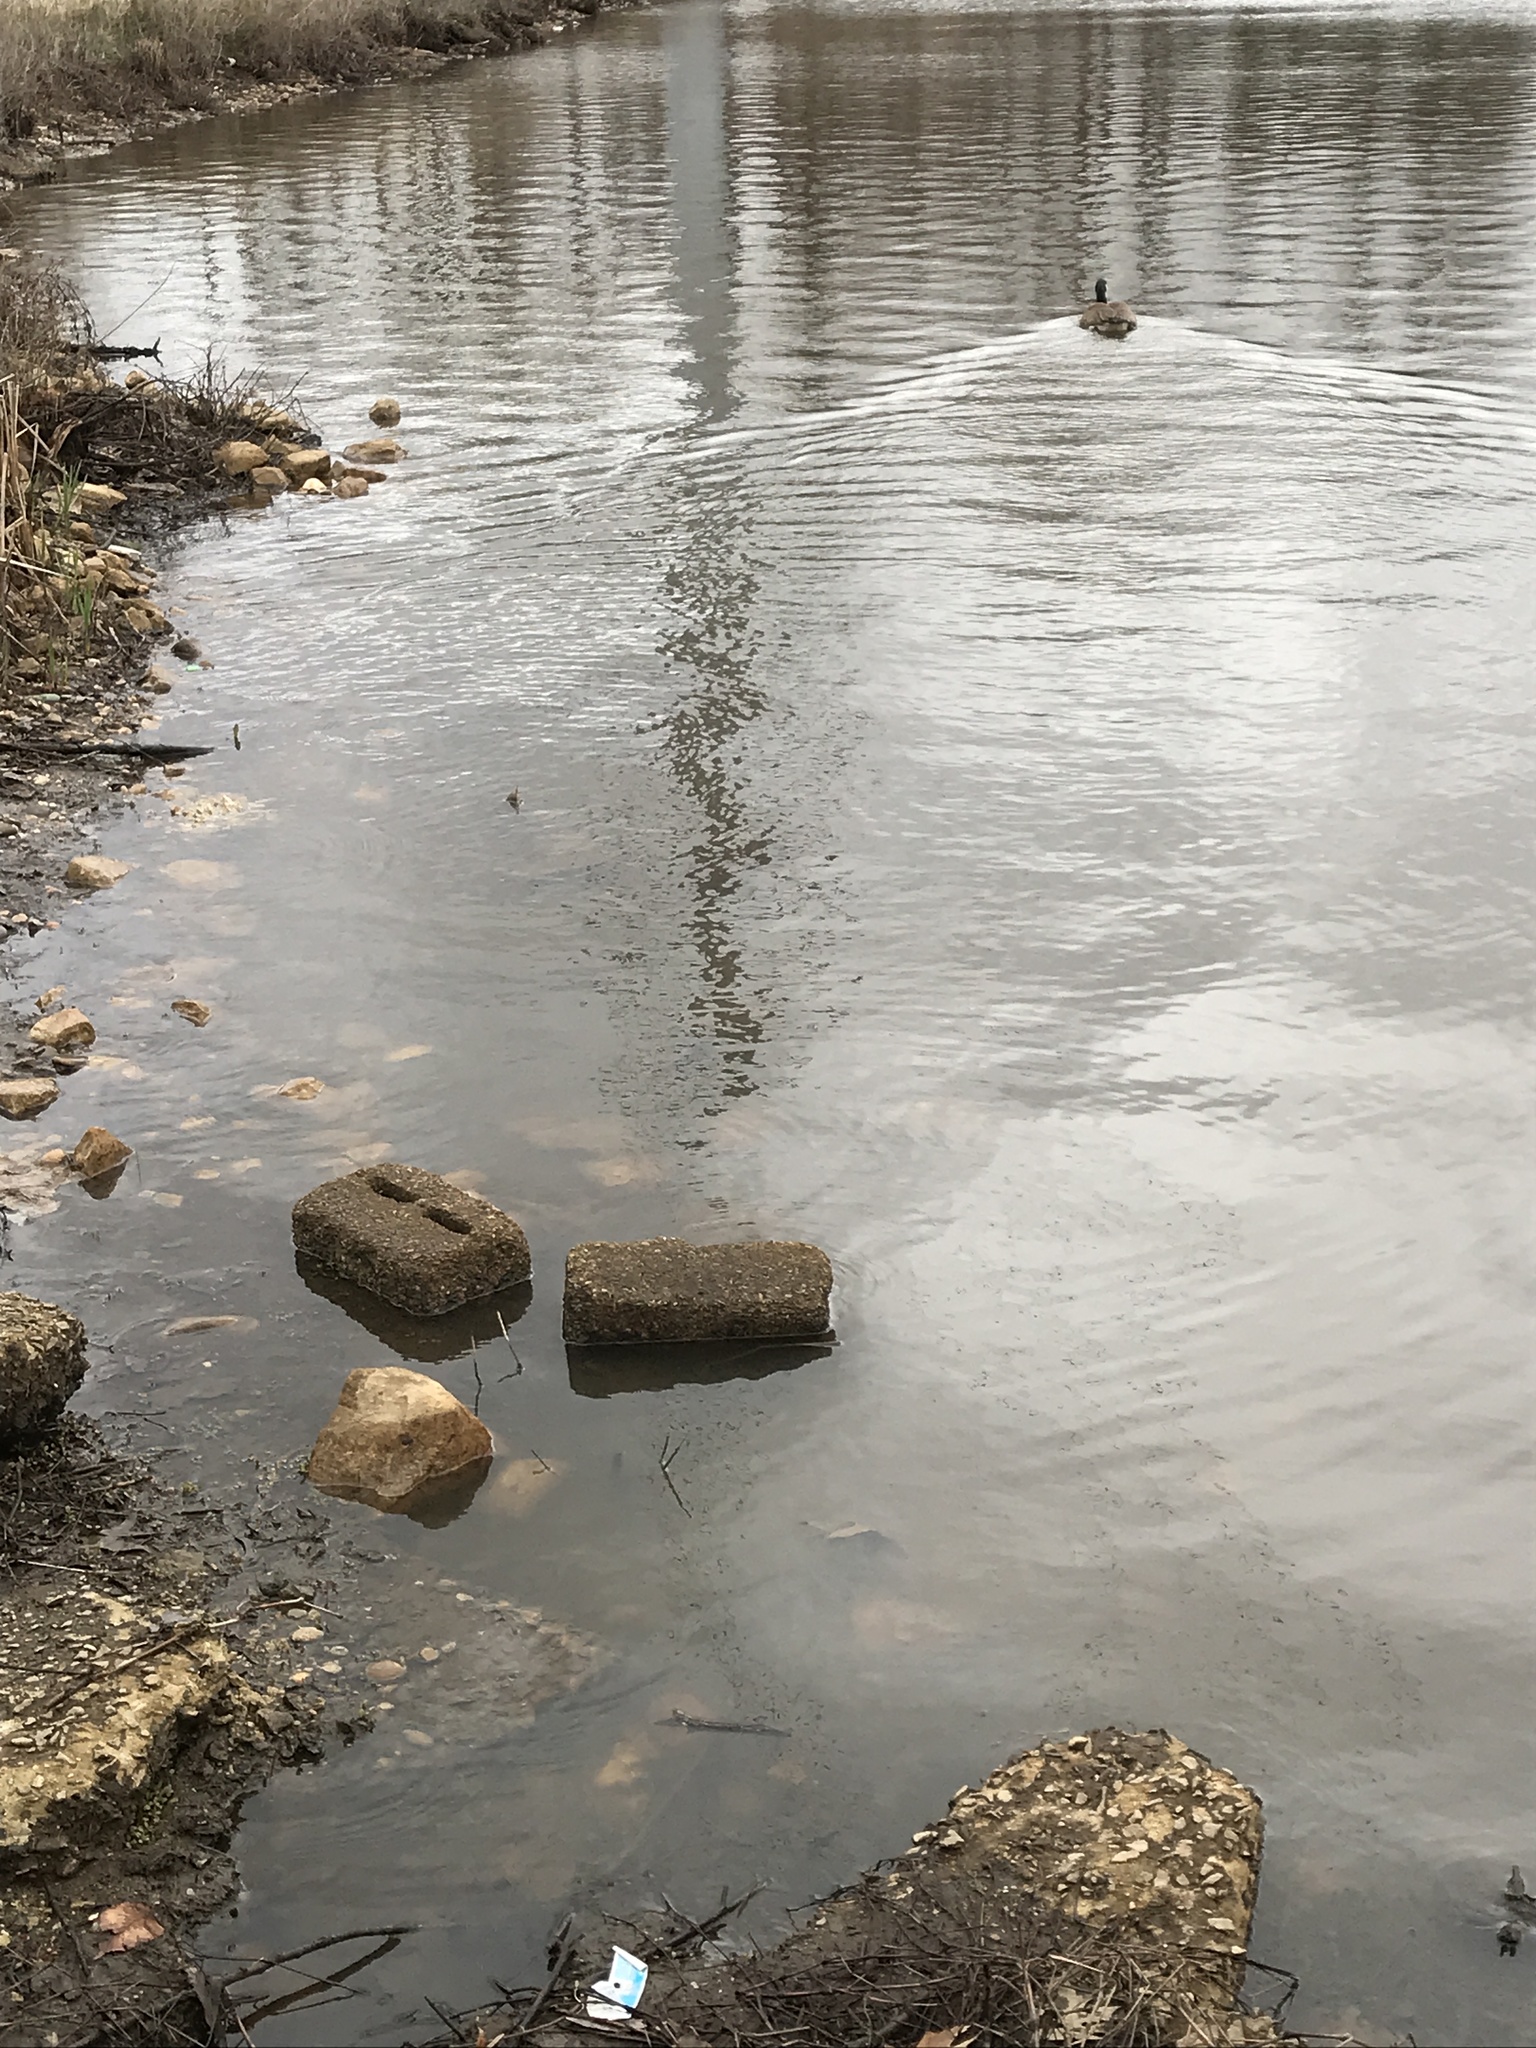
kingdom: Animalia
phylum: Chordata
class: Aves
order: Anseriformes
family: Anatidae
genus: Branta
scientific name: Branta canadensis
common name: Canada goose
